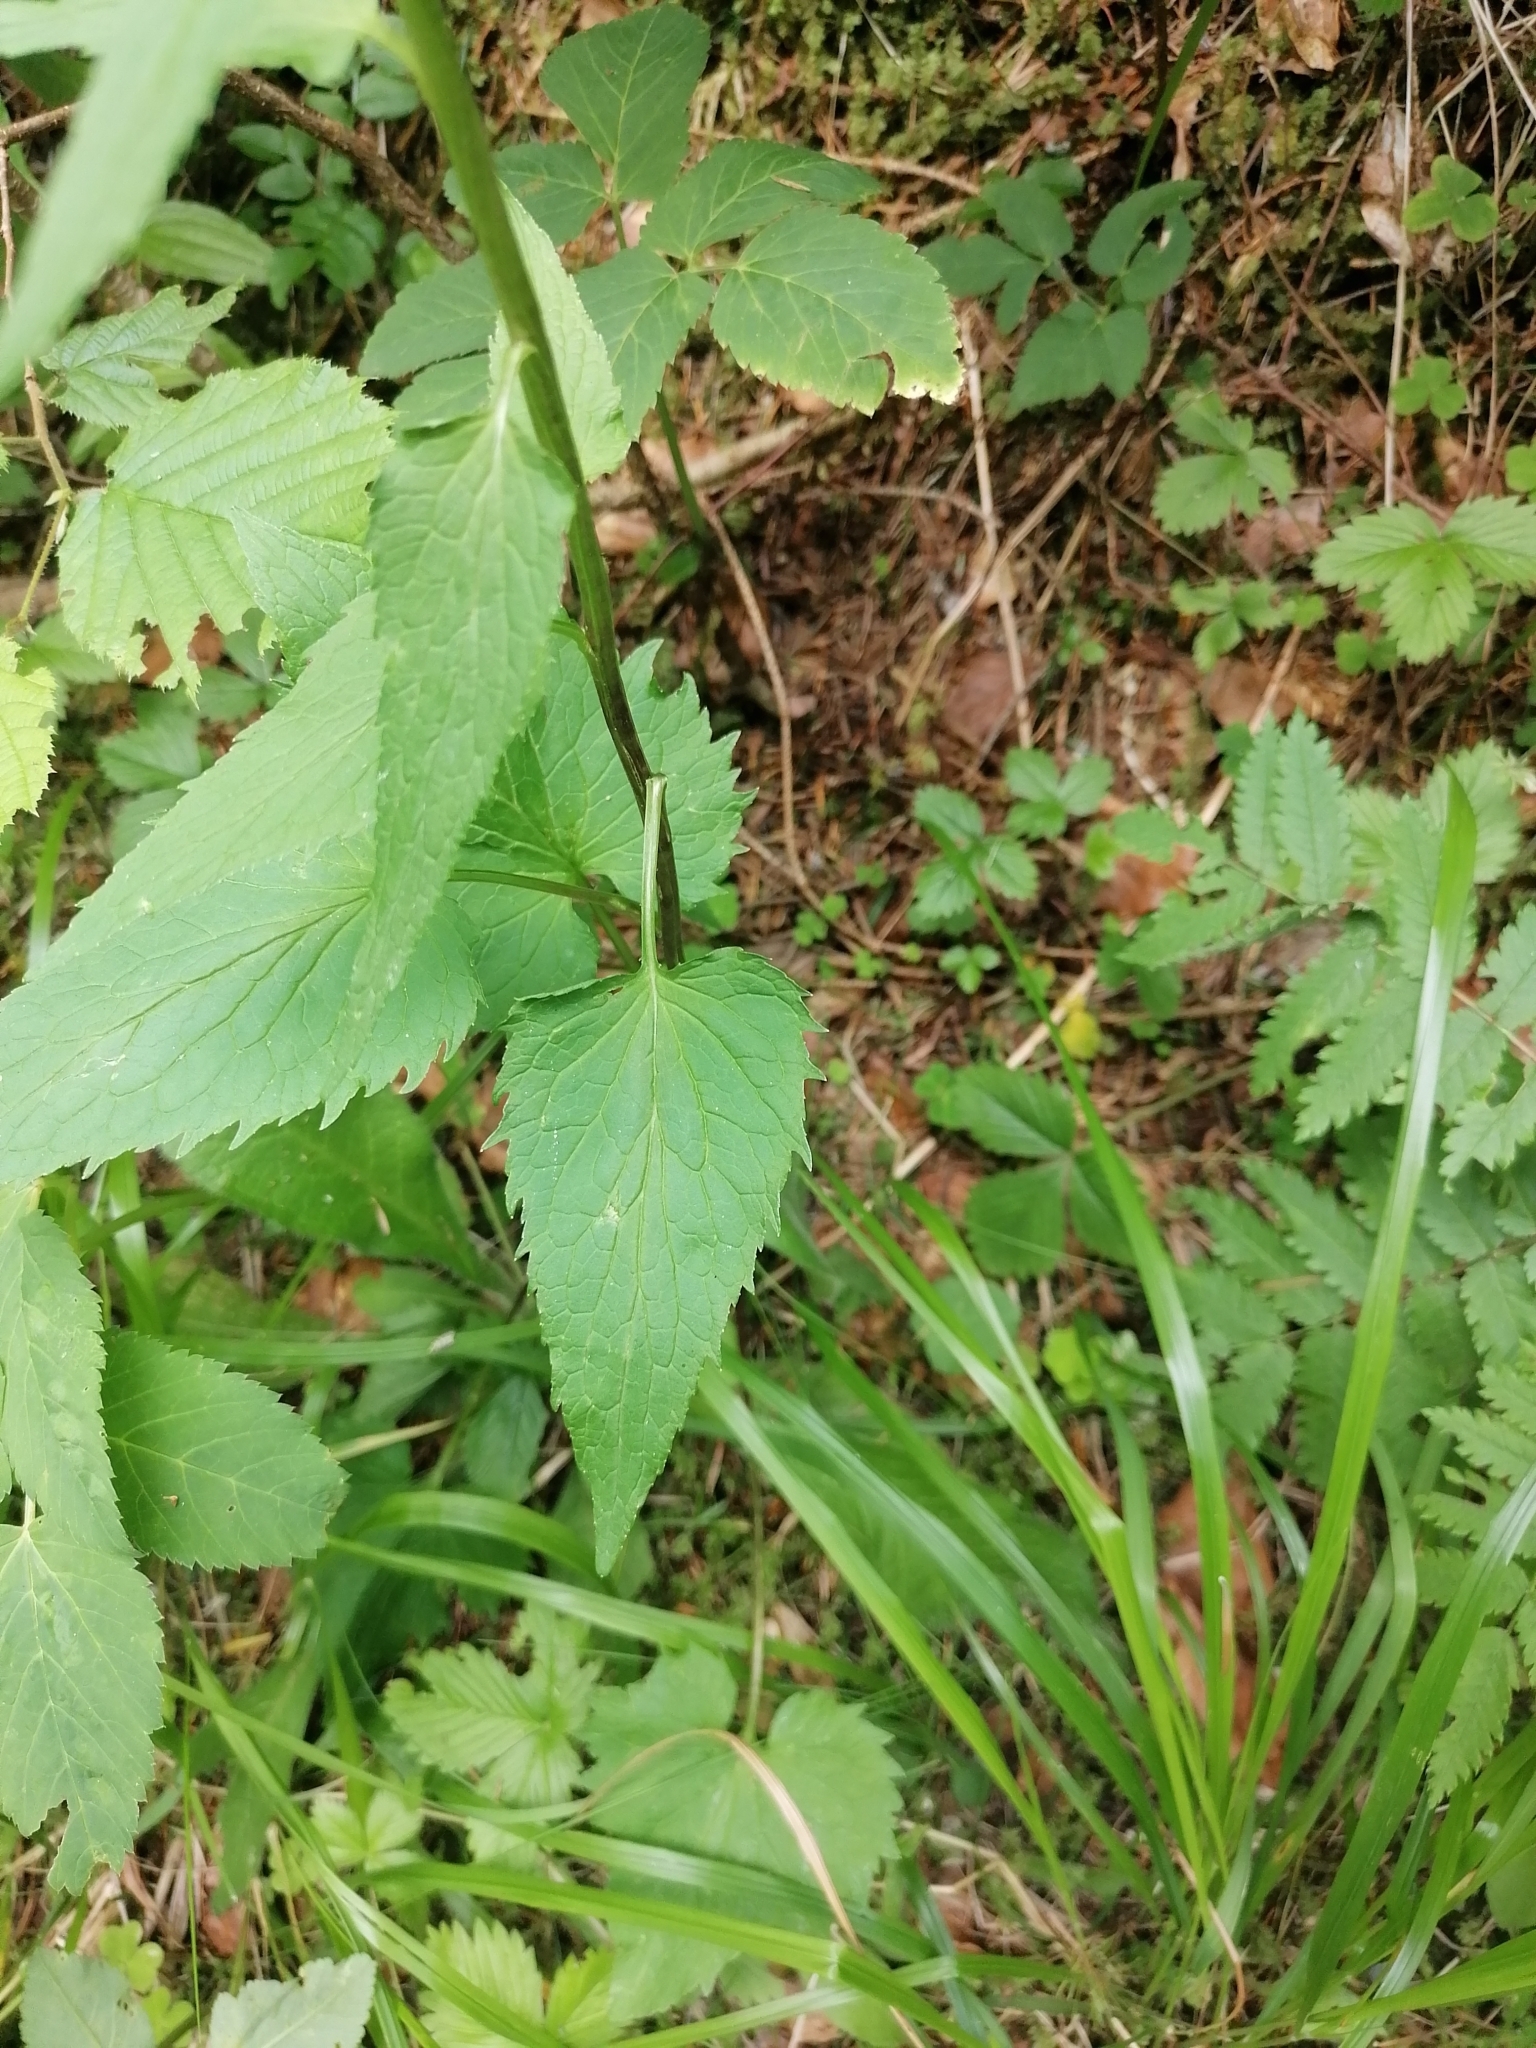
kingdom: Plantae
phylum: Tracheophyta
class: Magnoliopsida
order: Asterales
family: Campanulaceae
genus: Phyteuma
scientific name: Phyteuma spicatum
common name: Spiked rampion
